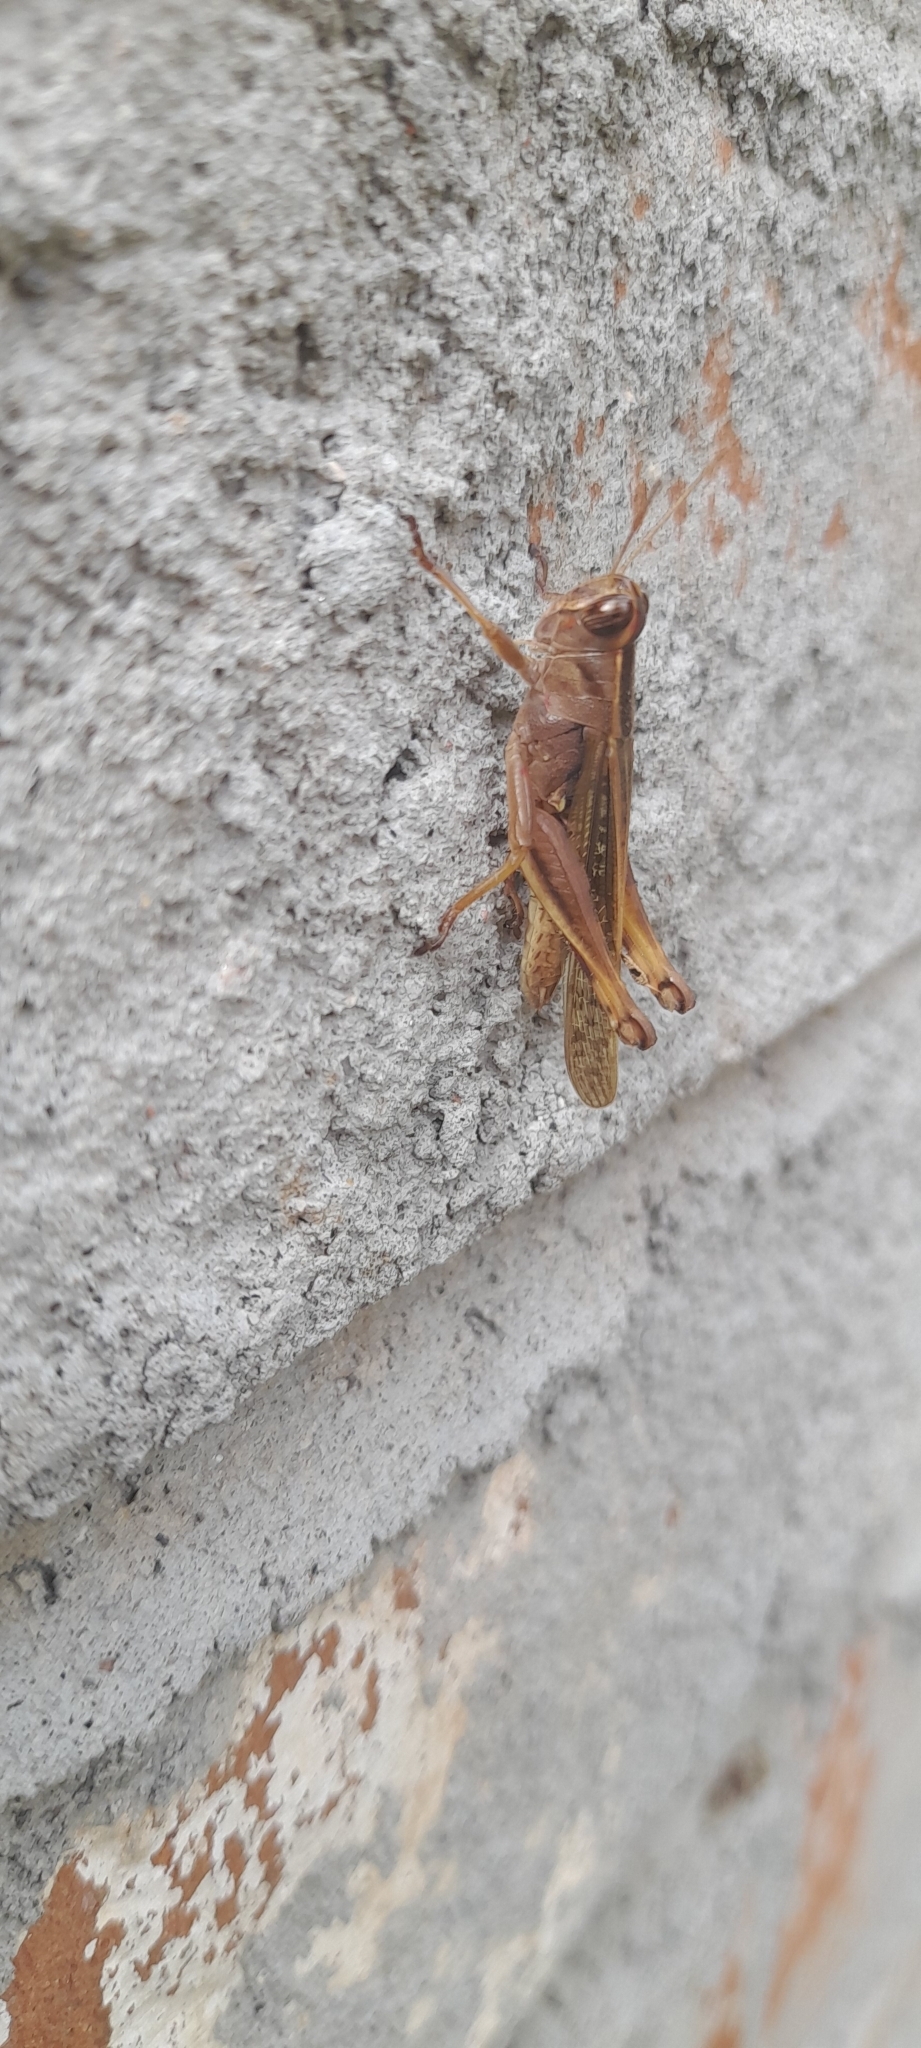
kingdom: Animalia
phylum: Arthropoda
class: Insecta
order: Orthoptera
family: Acrididae
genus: Eyprepocnemis
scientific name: Eyprepocnemis alacris
